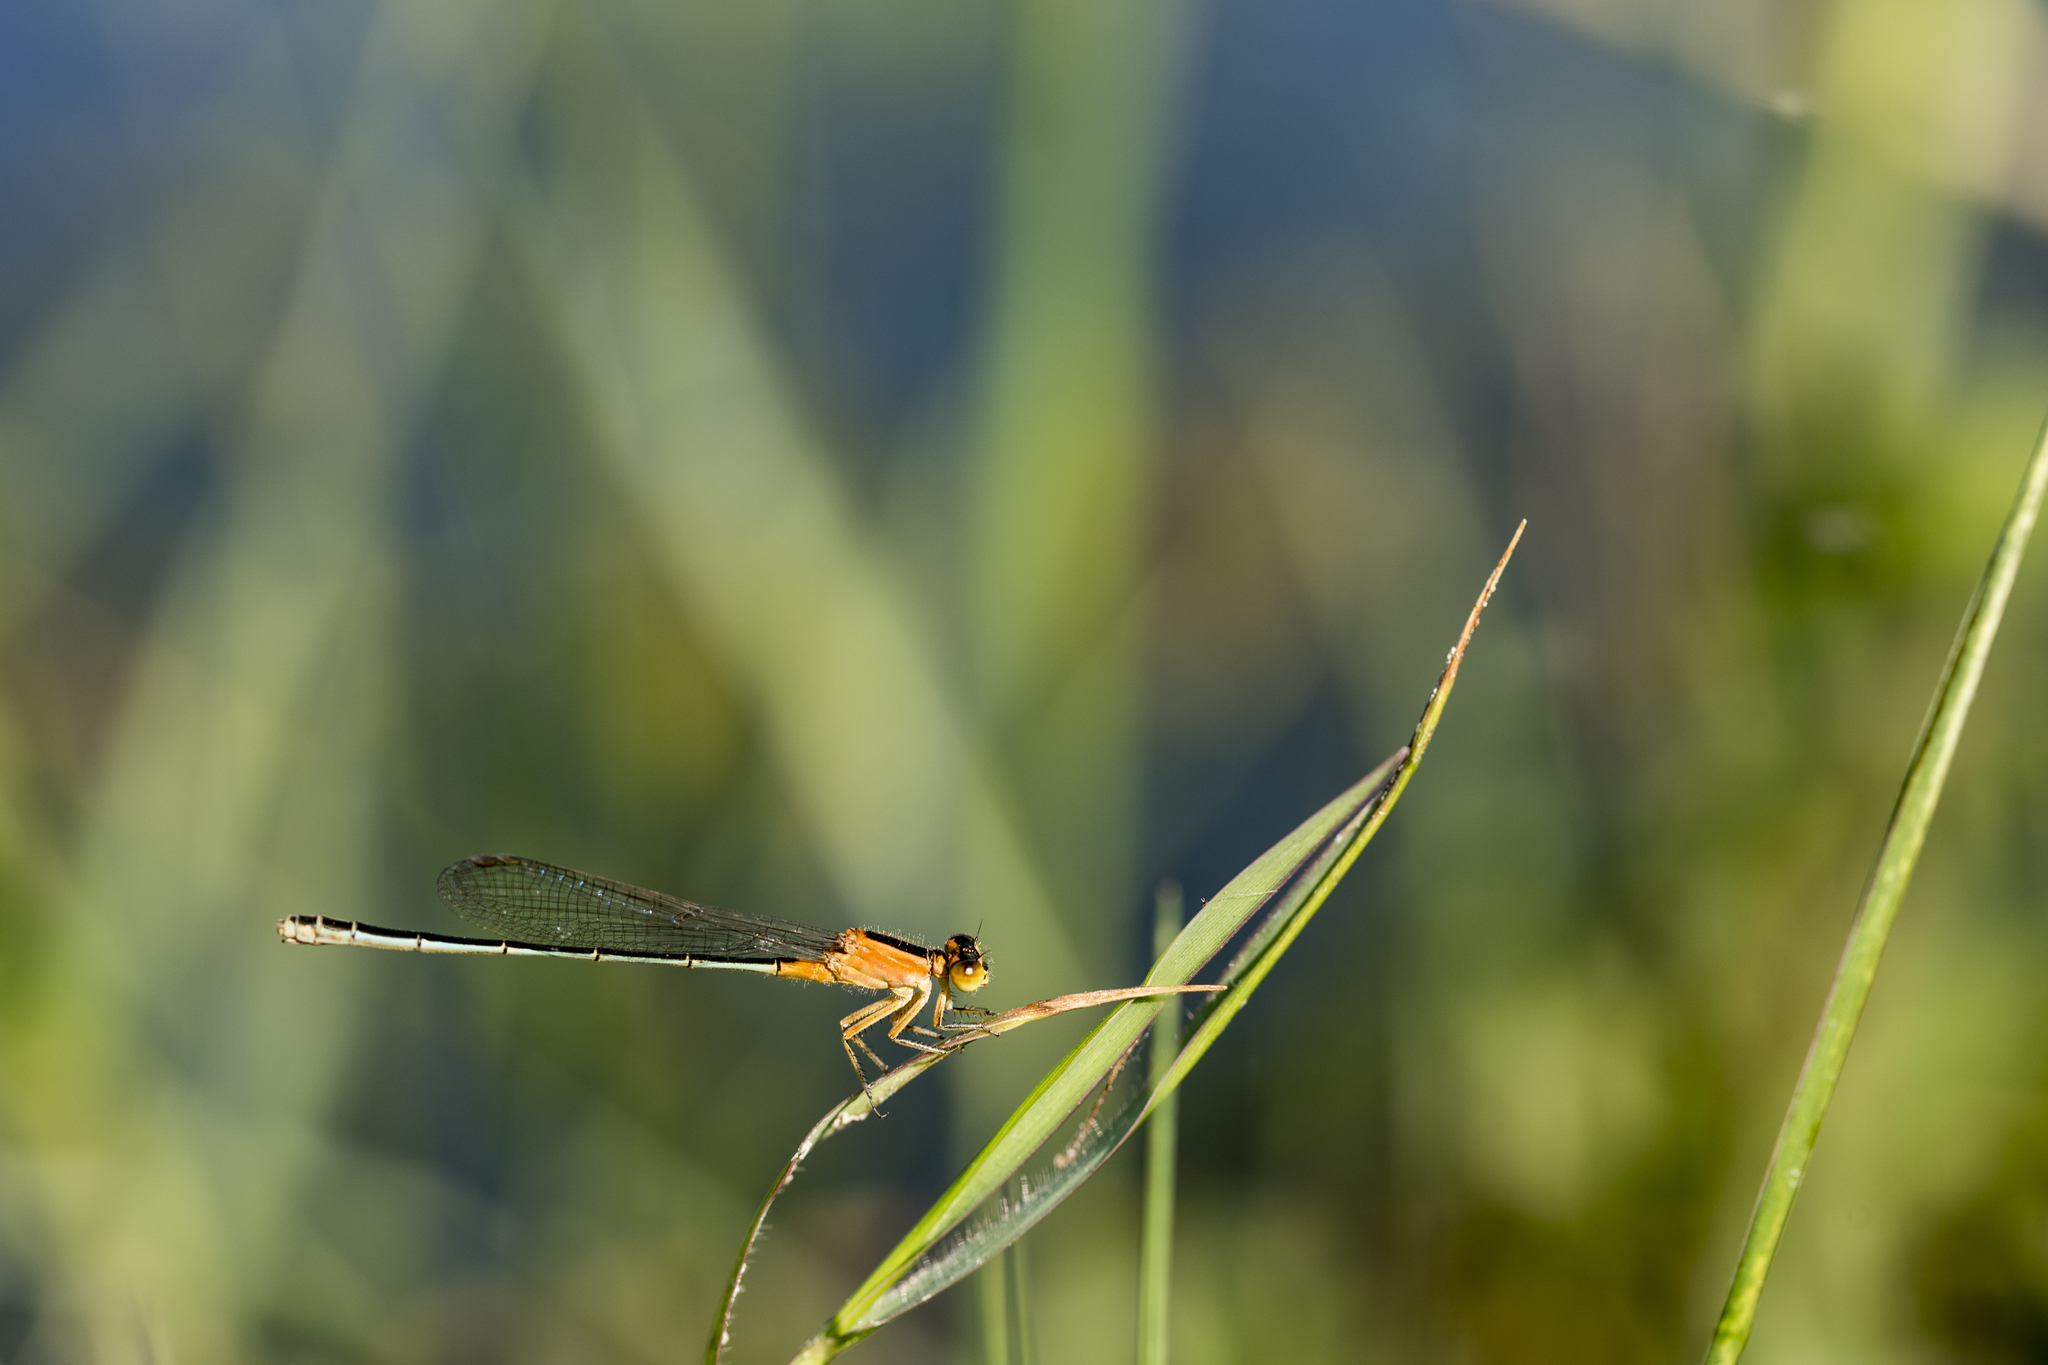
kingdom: Animalia
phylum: Arthropoda
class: Insecta
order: Odonata
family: Coenagrionidae
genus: Ischnura
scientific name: Ischnura senegalensis
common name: Tropical bluetail
